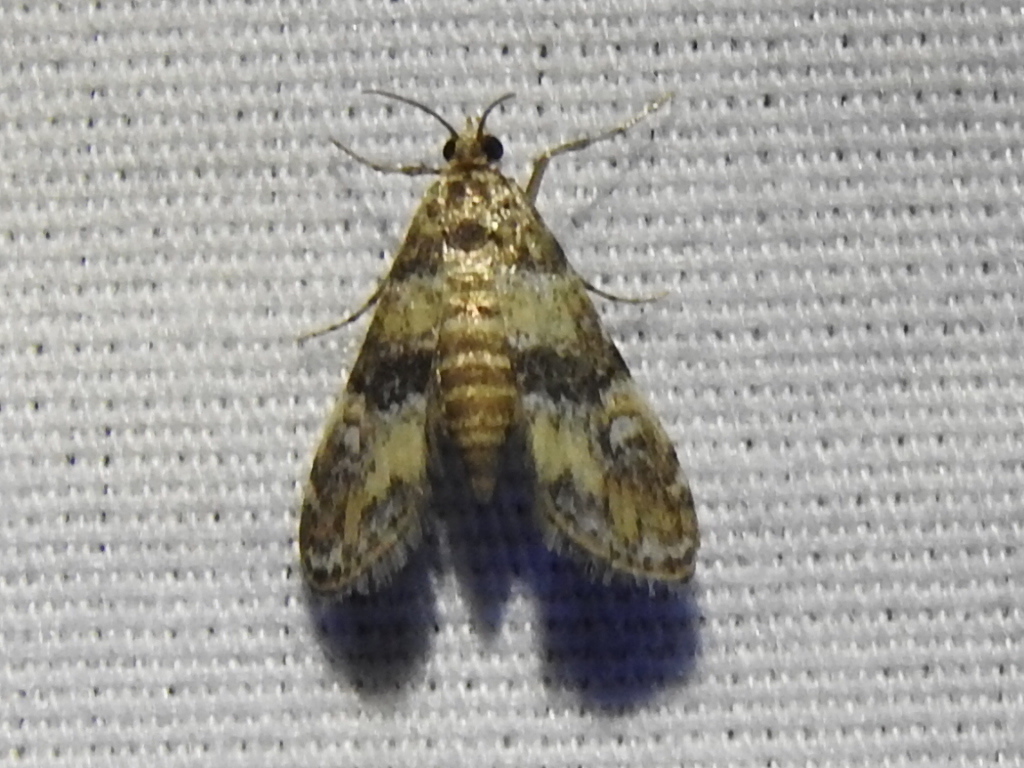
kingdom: Animalia
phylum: Arthropoda
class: Insecta
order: Lepidoptera
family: Crambidae
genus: Elophila
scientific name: Elophila obliteralis
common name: Waterlily leafcutter moth
